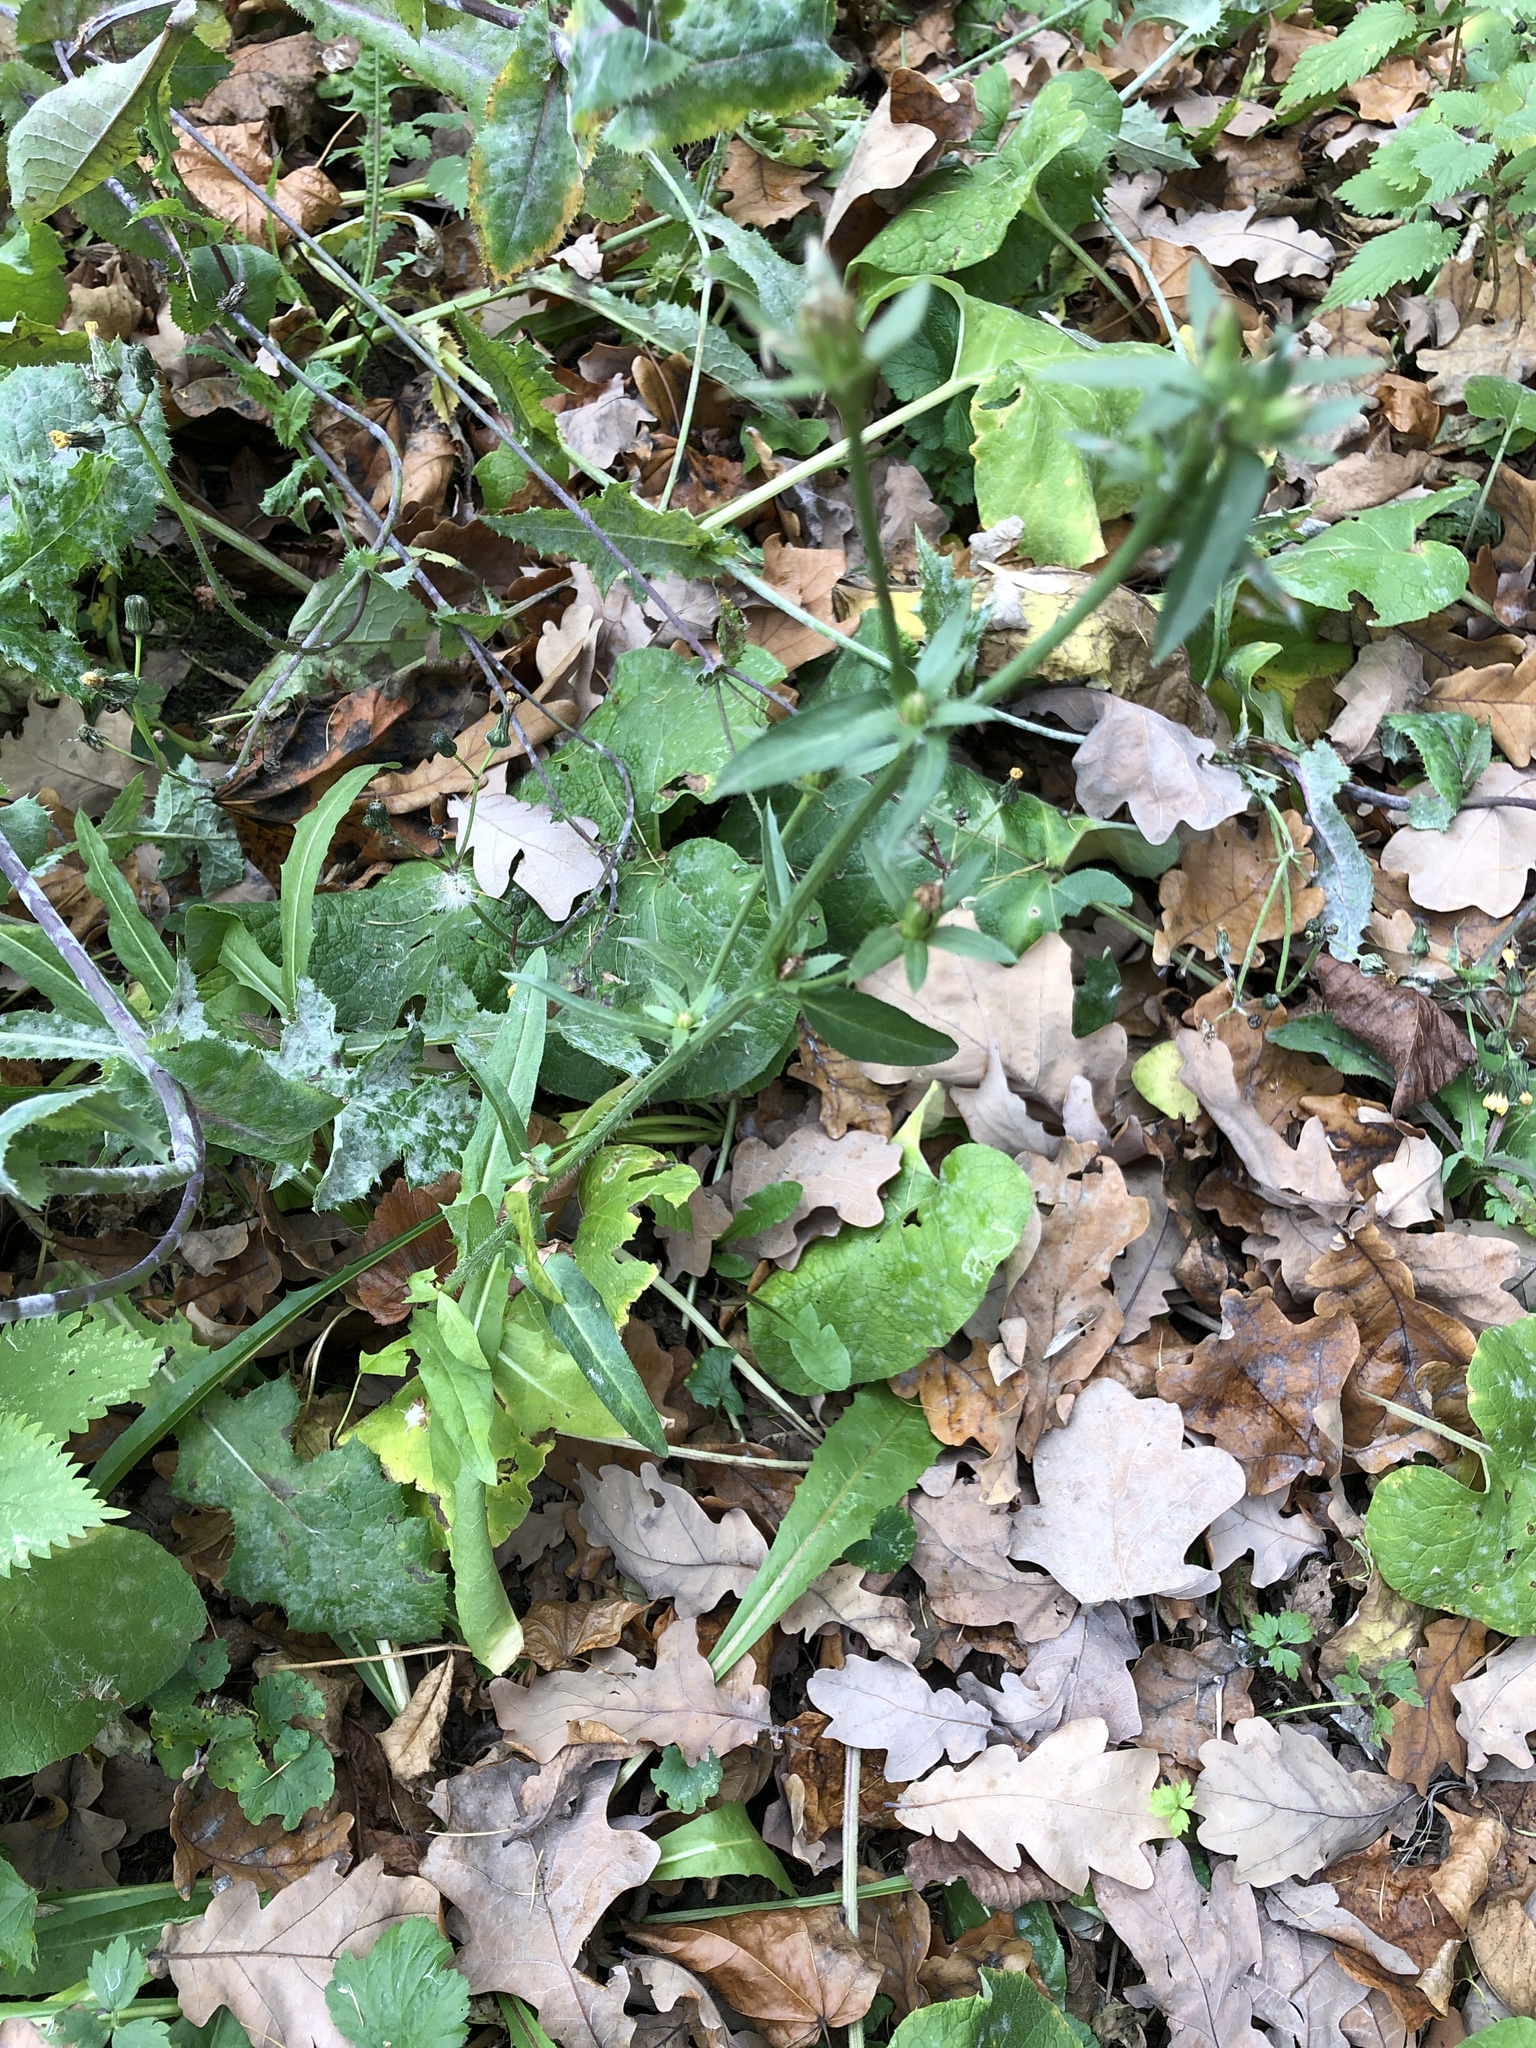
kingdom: Plantae
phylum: Tracheophyta
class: Magnoliopsida
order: Asterales
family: Asteraceae
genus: Cichorium
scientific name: Cichorium intybus
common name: Chicory
